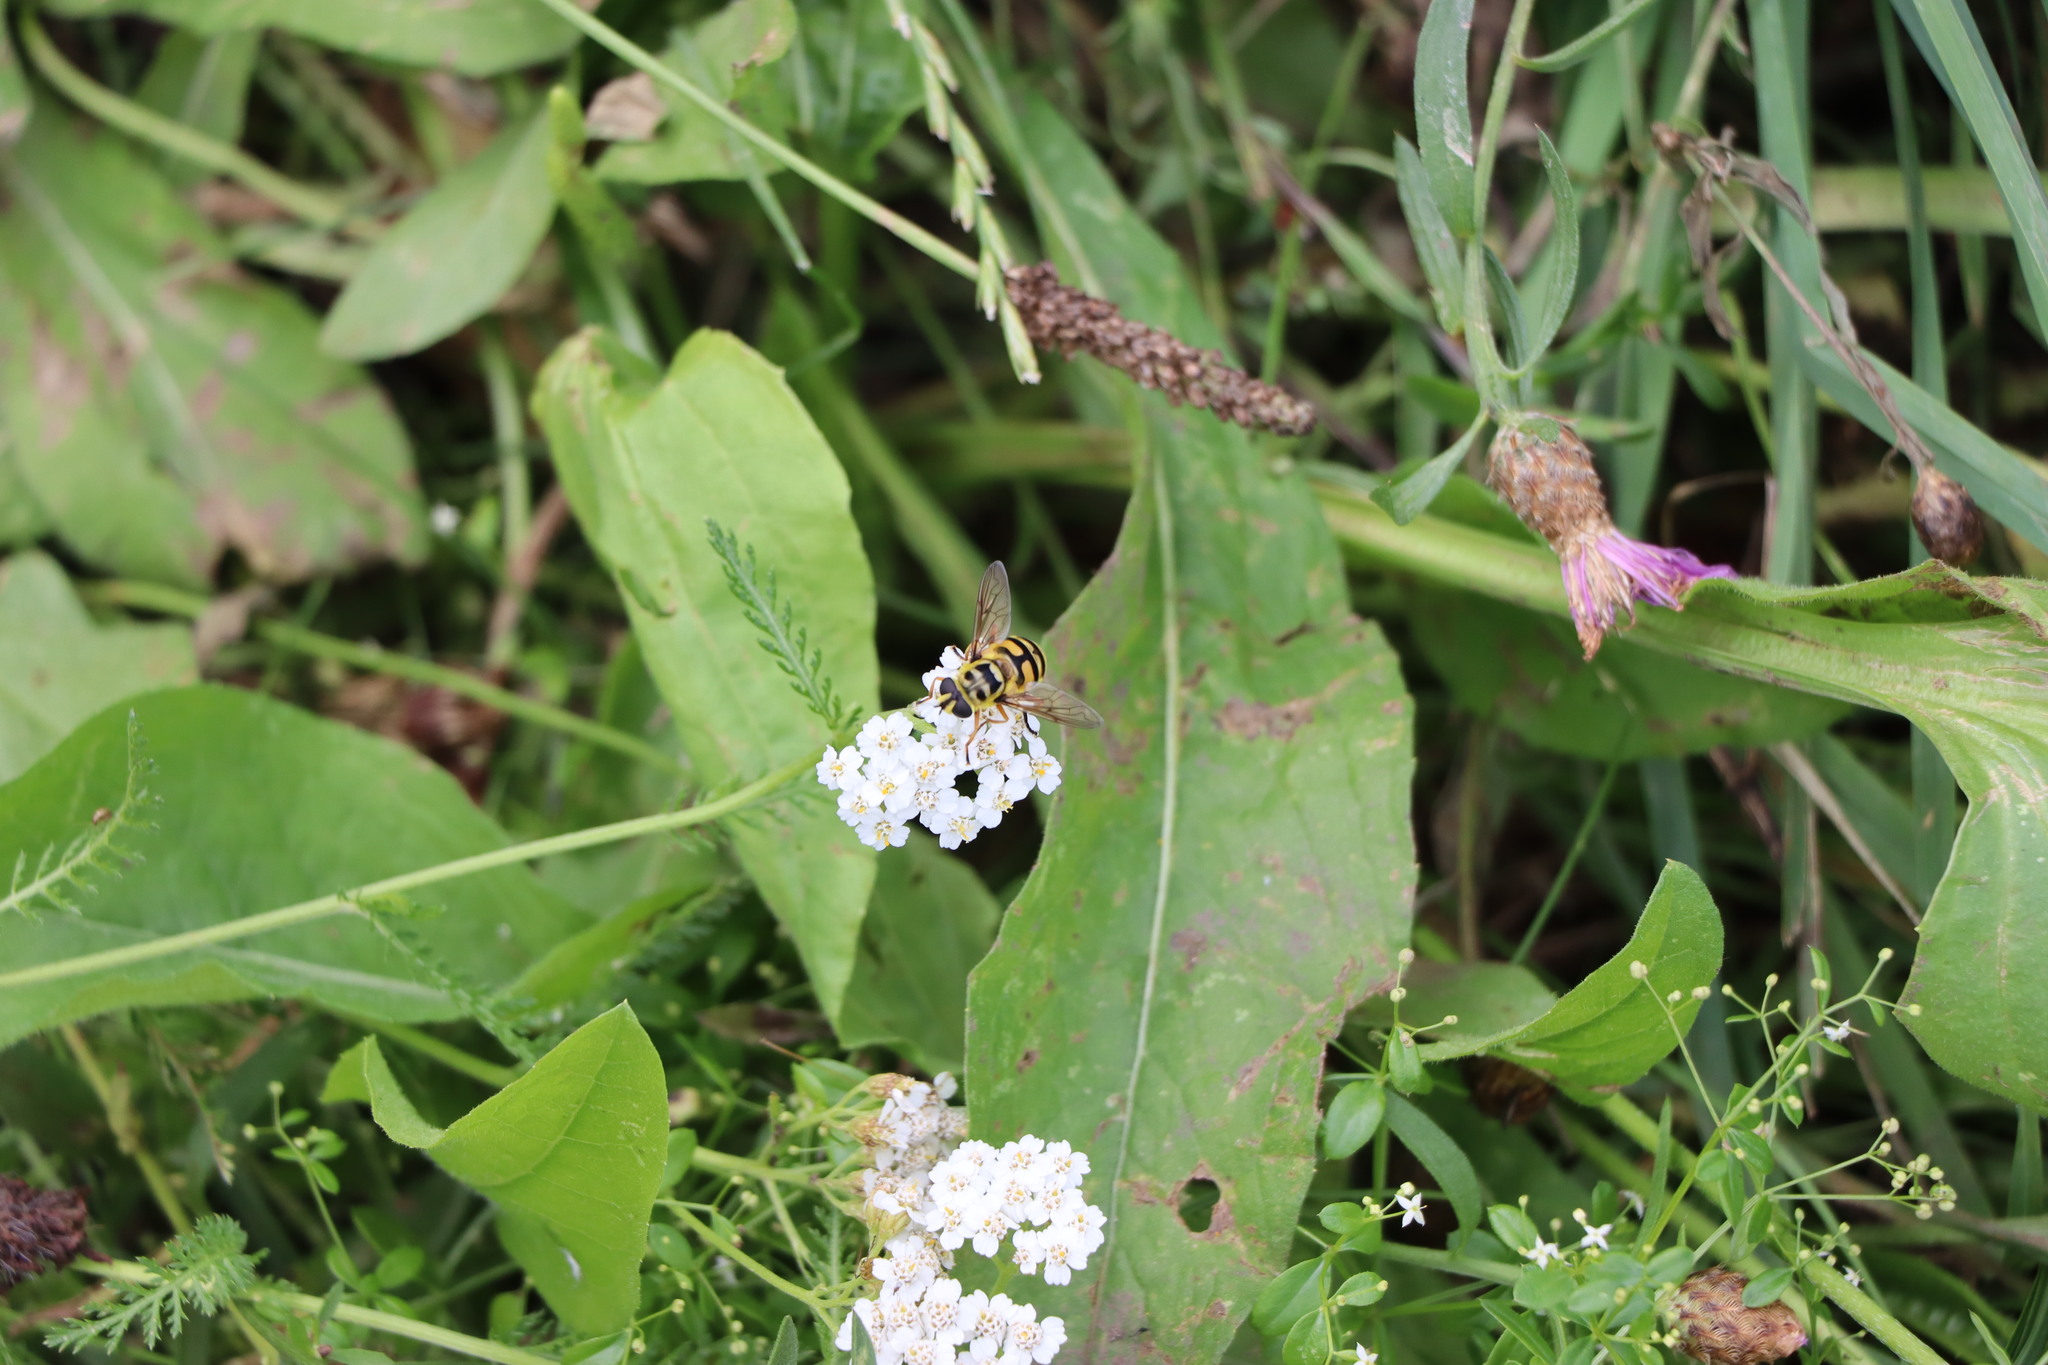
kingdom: Animalia
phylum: Arthropoda
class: Insecta
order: Diptera
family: Syrphidae
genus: Myathropa
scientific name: Myathropa florea
